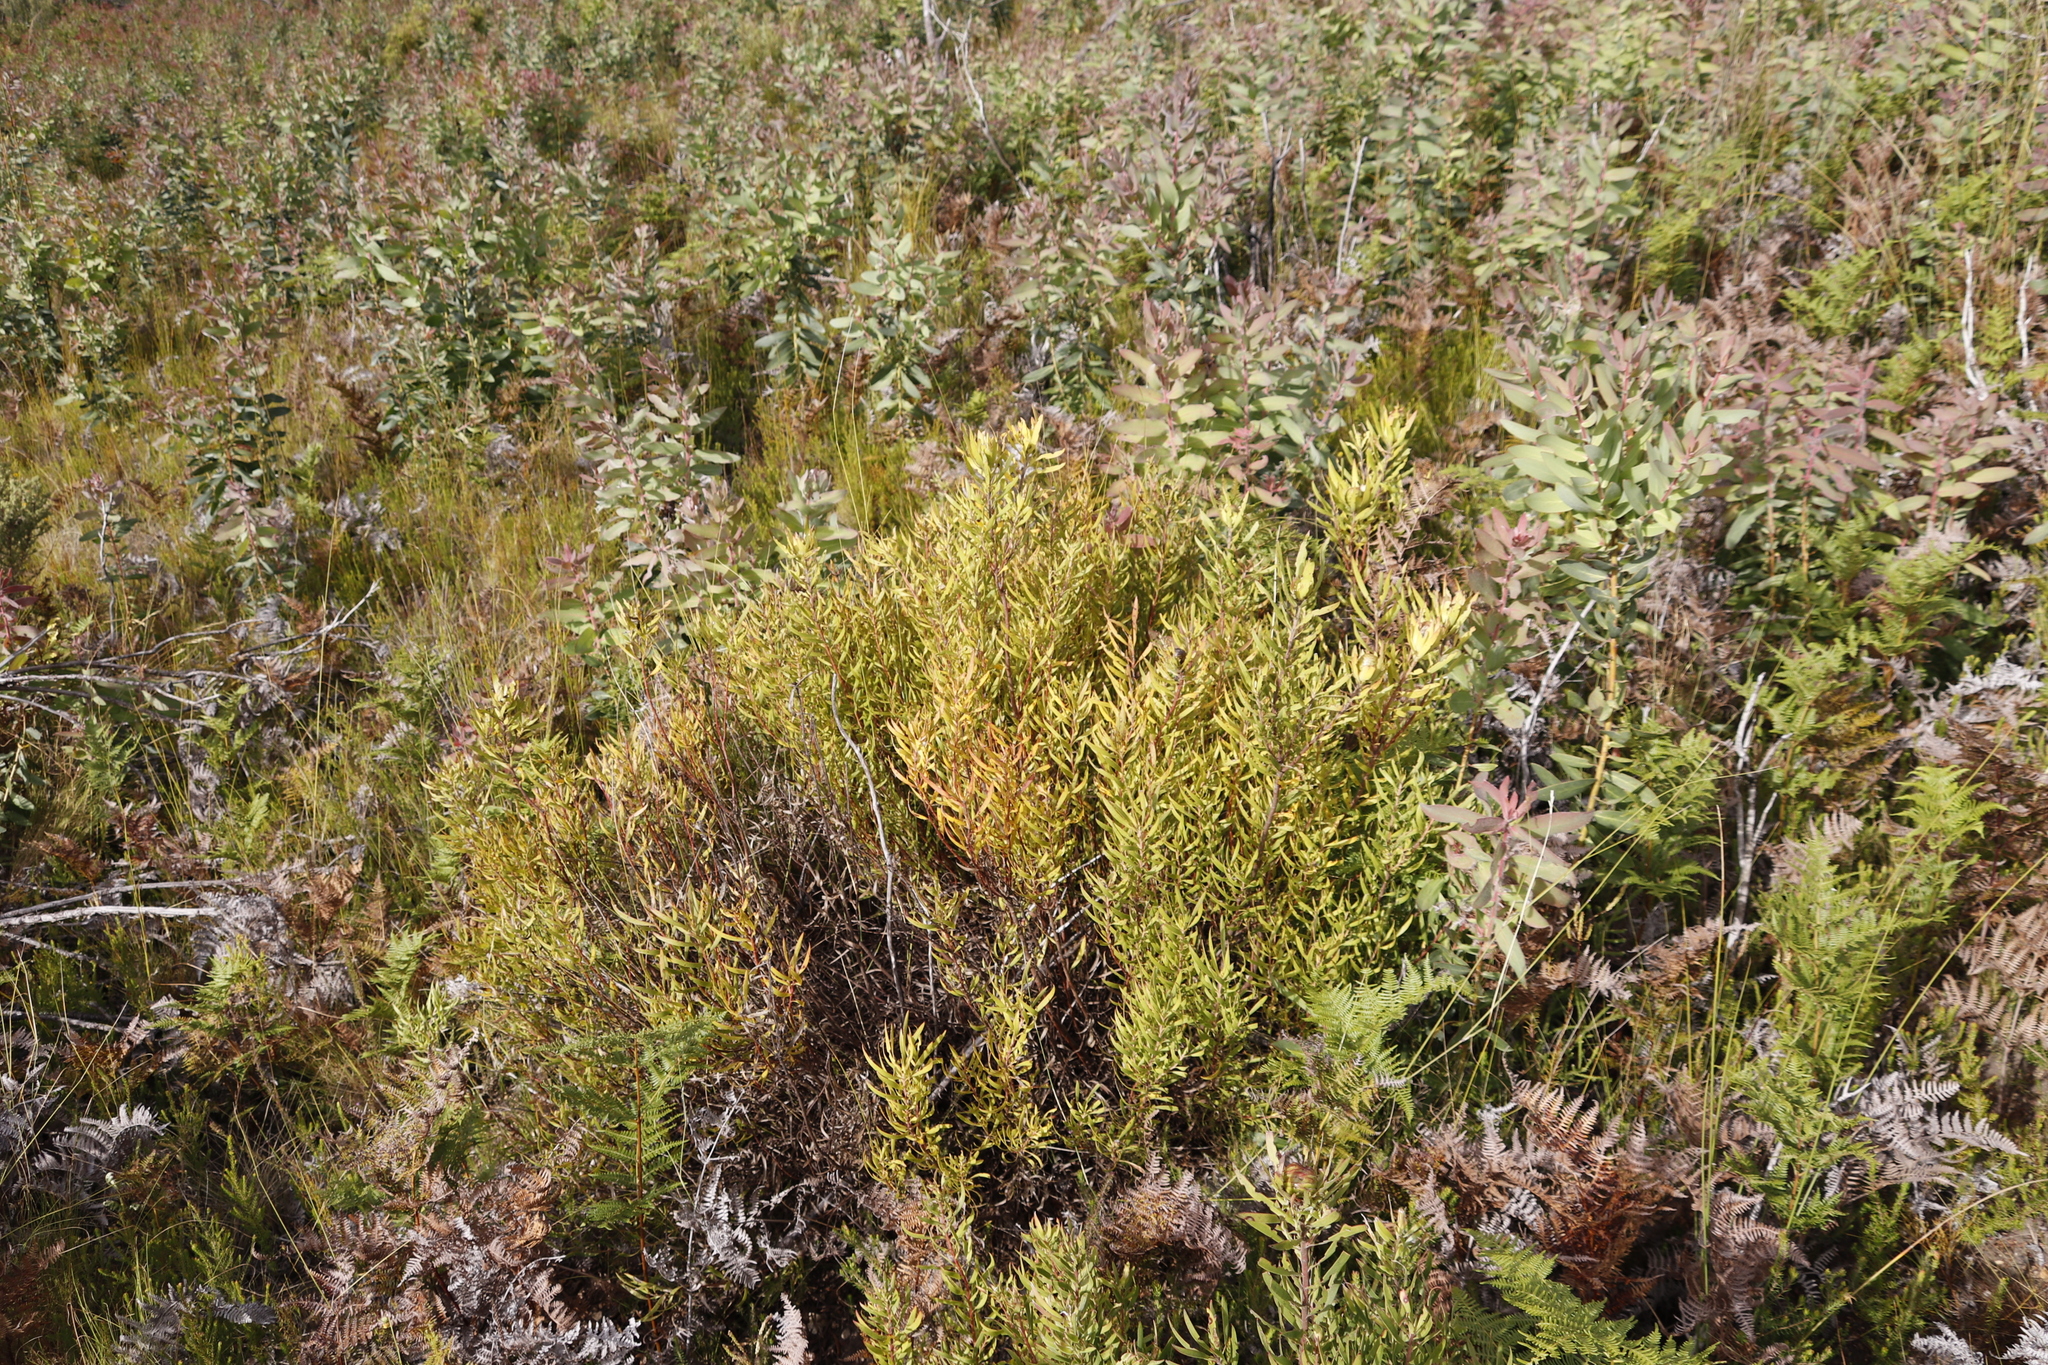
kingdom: Plantae
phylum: Tracheophyta
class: Magnoliopsida
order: Proteales
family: Proteaceae
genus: Leucadendron
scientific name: Leucadendron spissifolium
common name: Spear-leaf conebush
